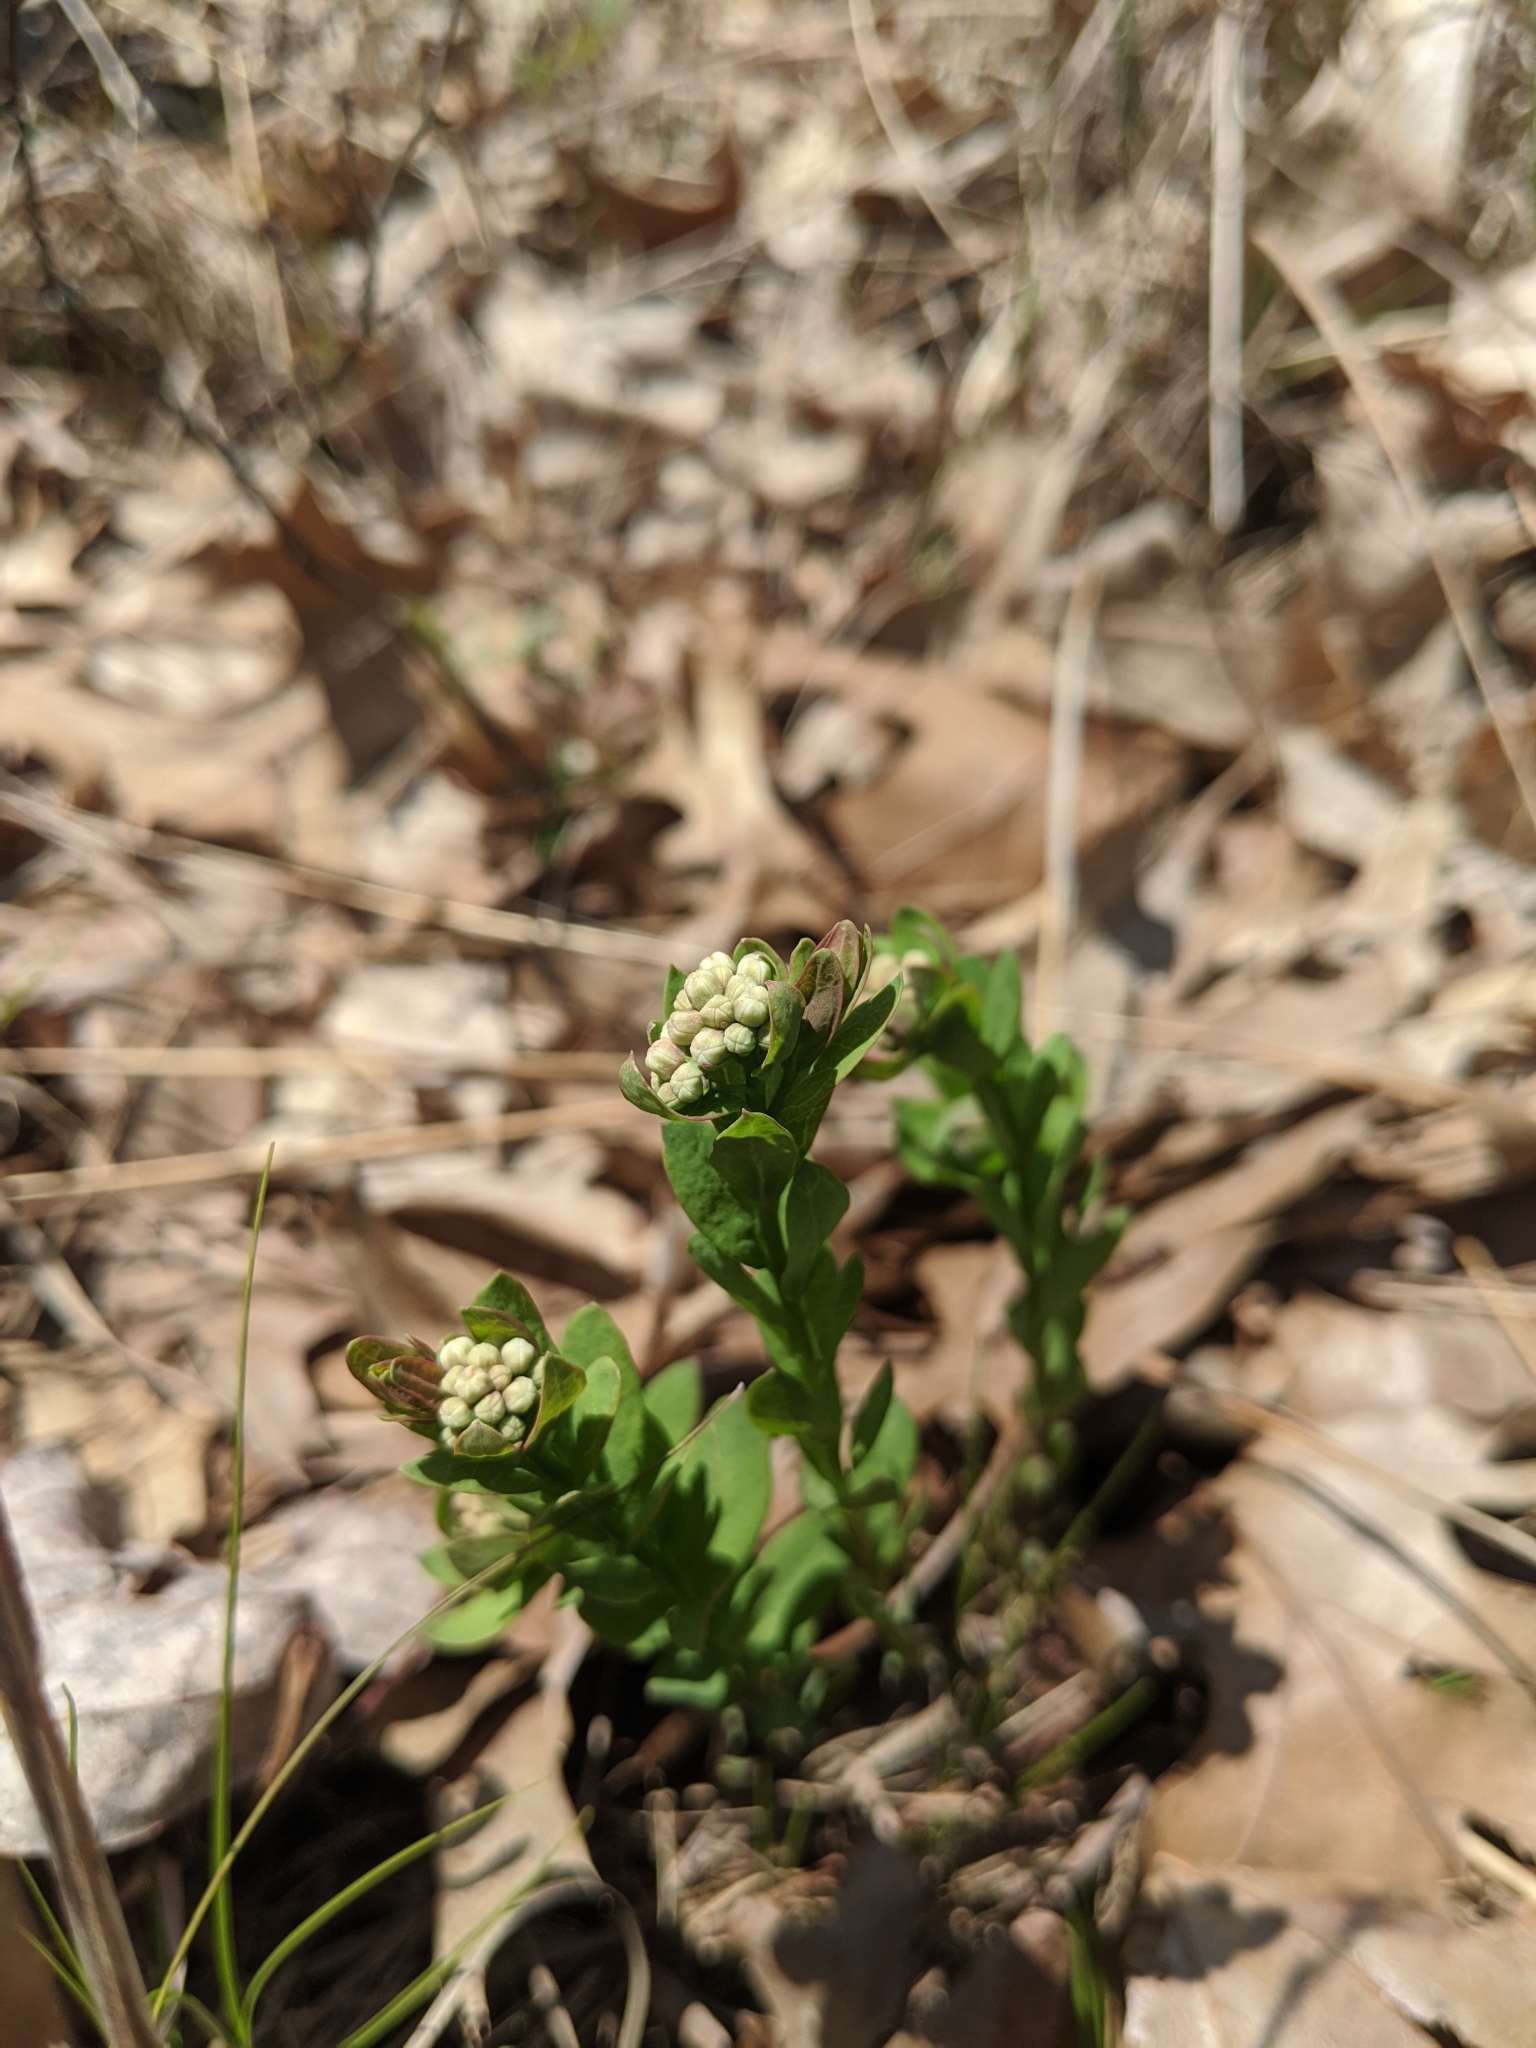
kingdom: Plantae
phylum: Tracheophyta
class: Magnoliopsida
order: Santalales
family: Comandraceae
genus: Comandra
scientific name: Comandra umbellata
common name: Bastard toadflax
